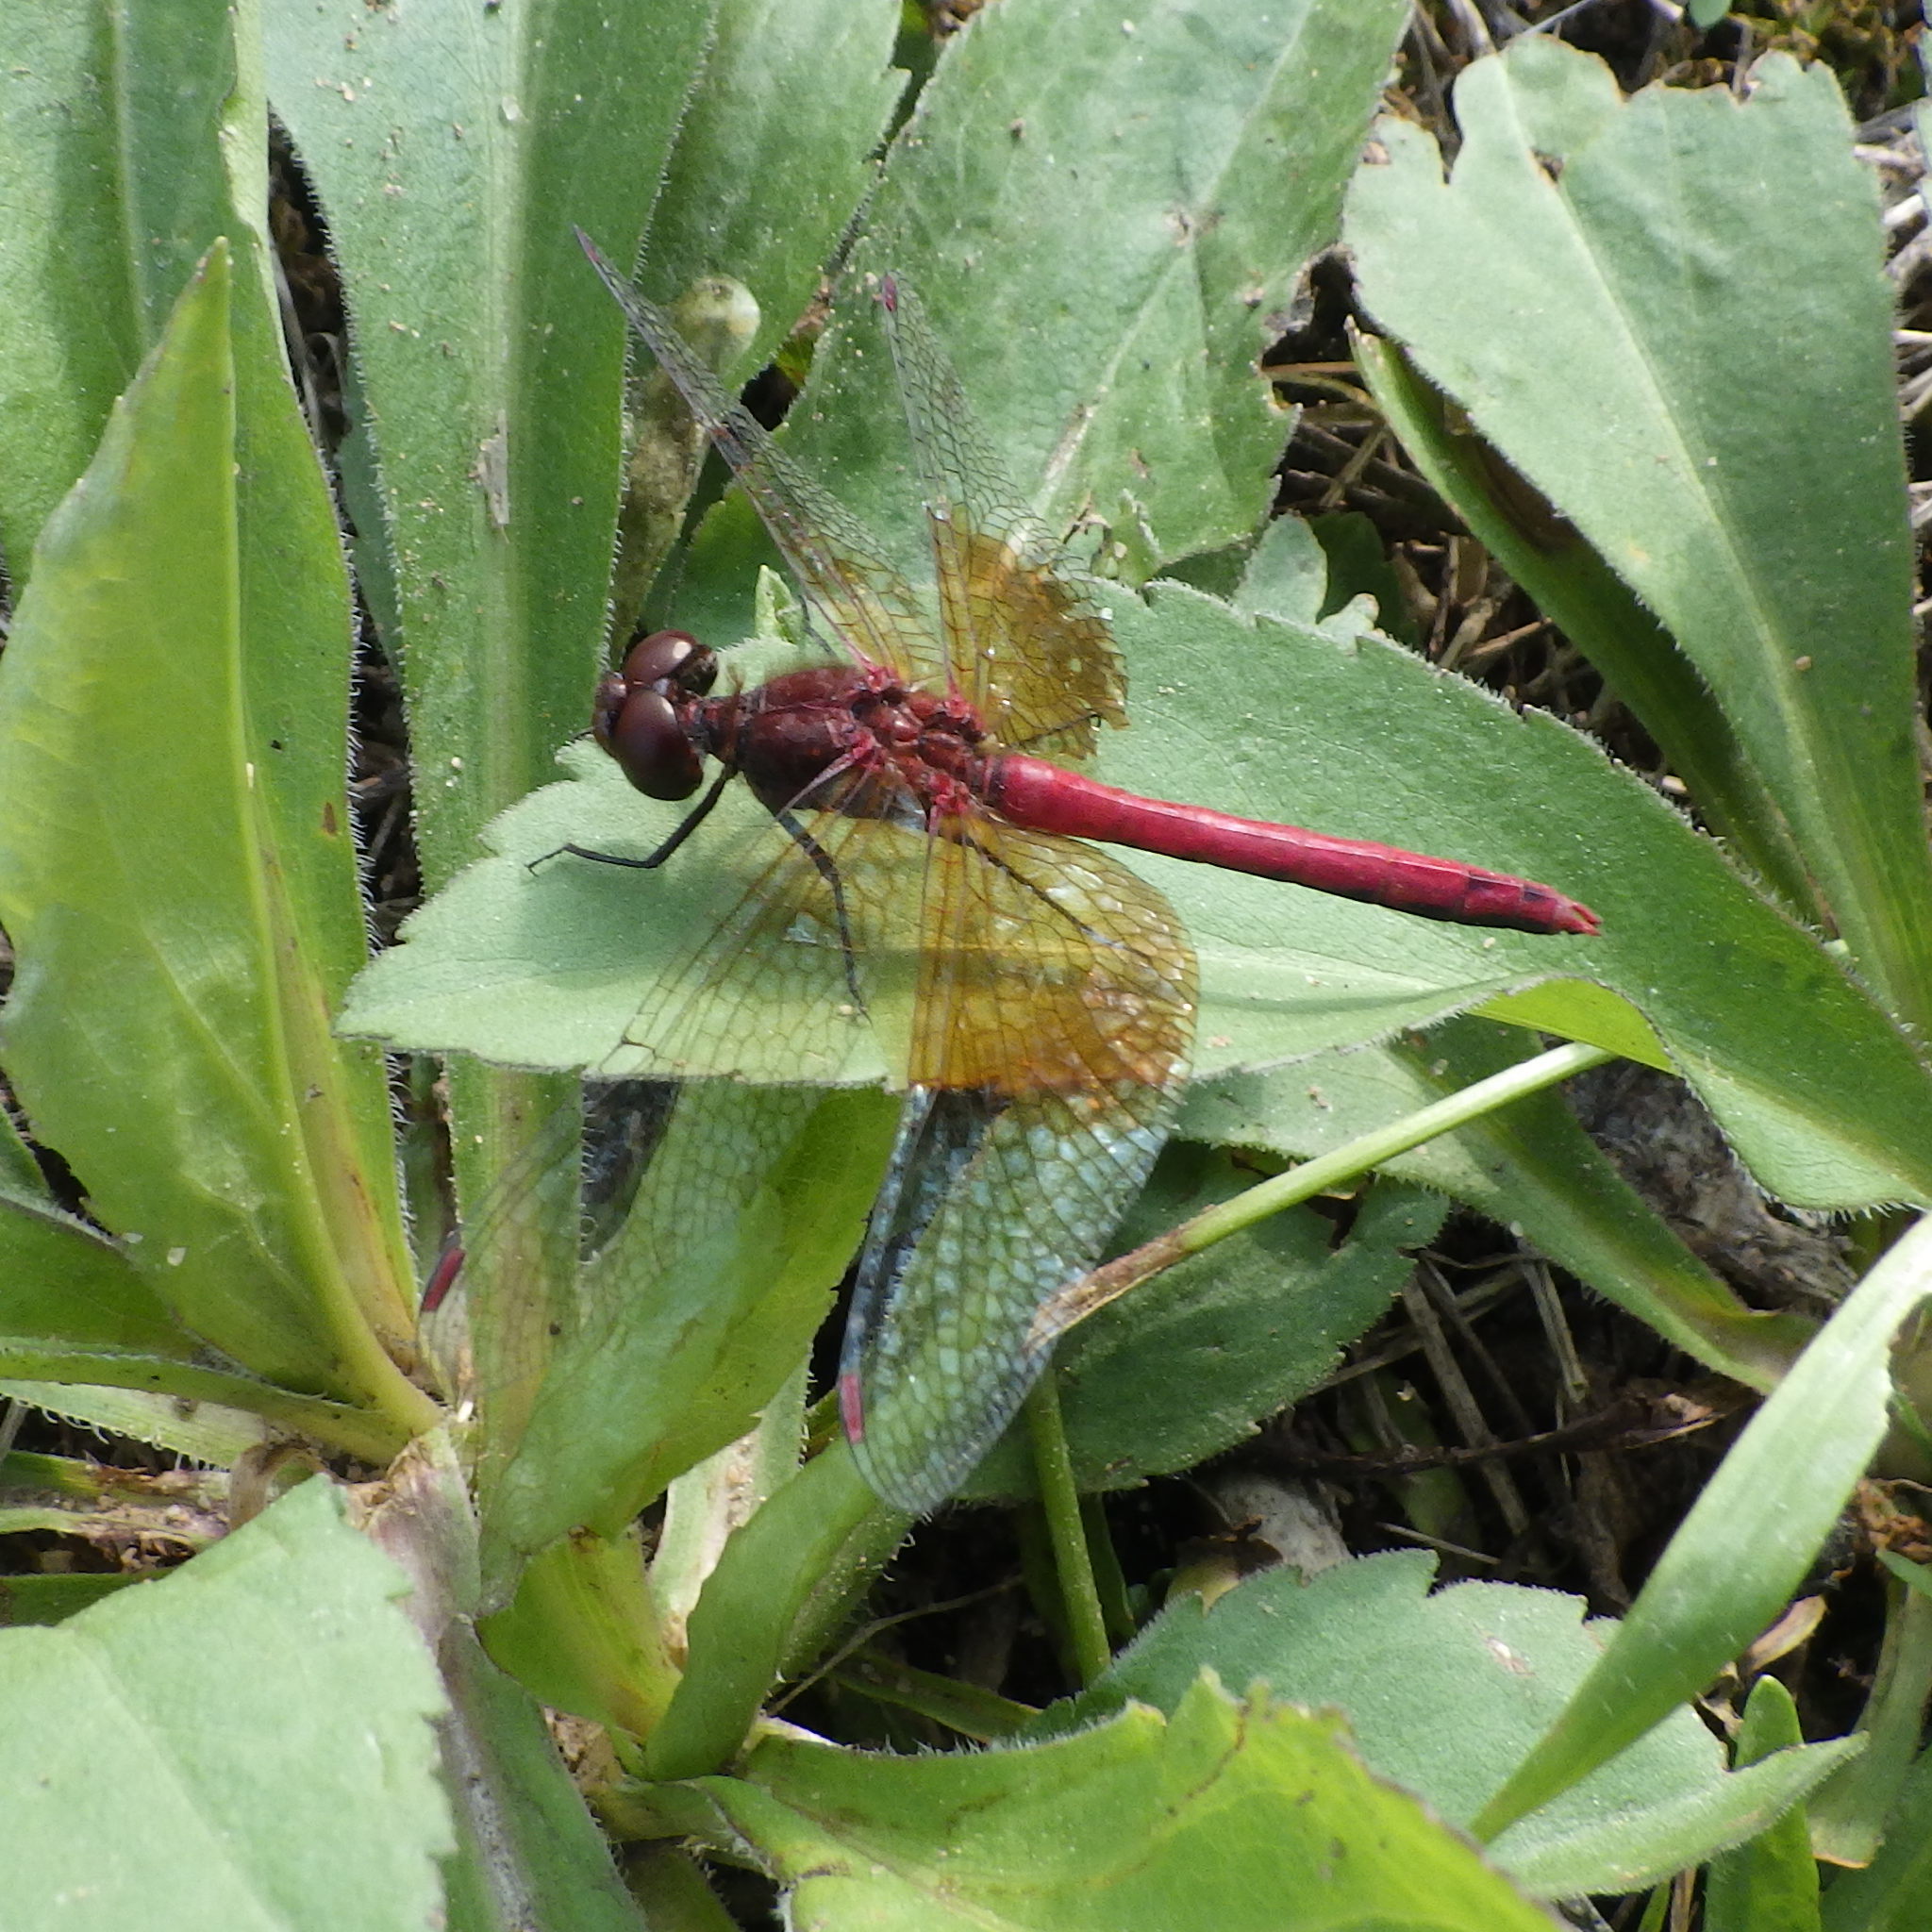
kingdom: Animalia
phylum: Arthropoda
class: Insecta
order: Odonata
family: Libellulidae
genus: Sympetrum
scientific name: Sympetrum semicinctum
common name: Band-winged meadowhawk
